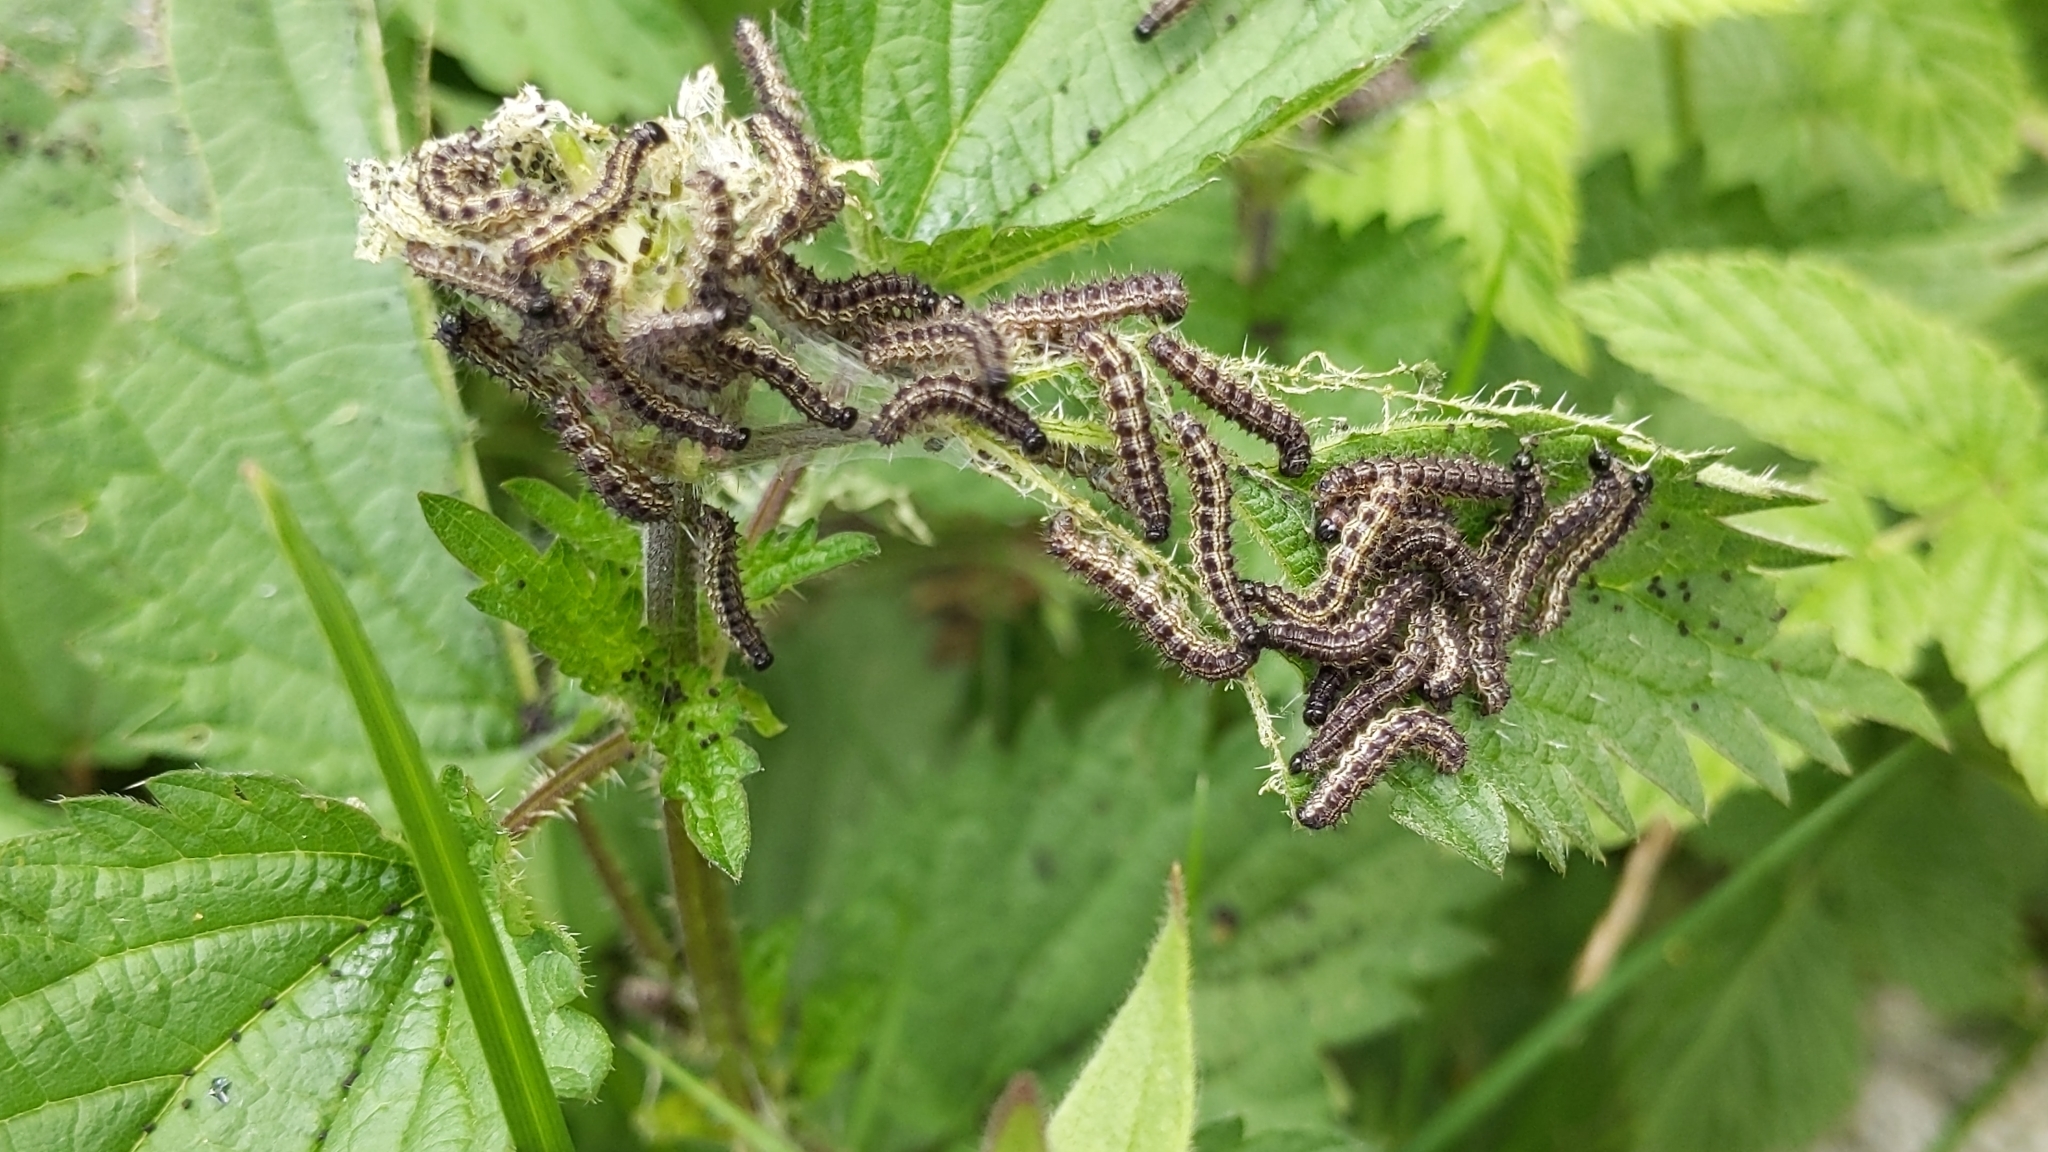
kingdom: Animalia
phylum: Arthropoda
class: Insecta
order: Lepidoptera
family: Nymphalidae
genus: Aglais
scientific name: Aglais urticae
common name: Small tortoiseshell
